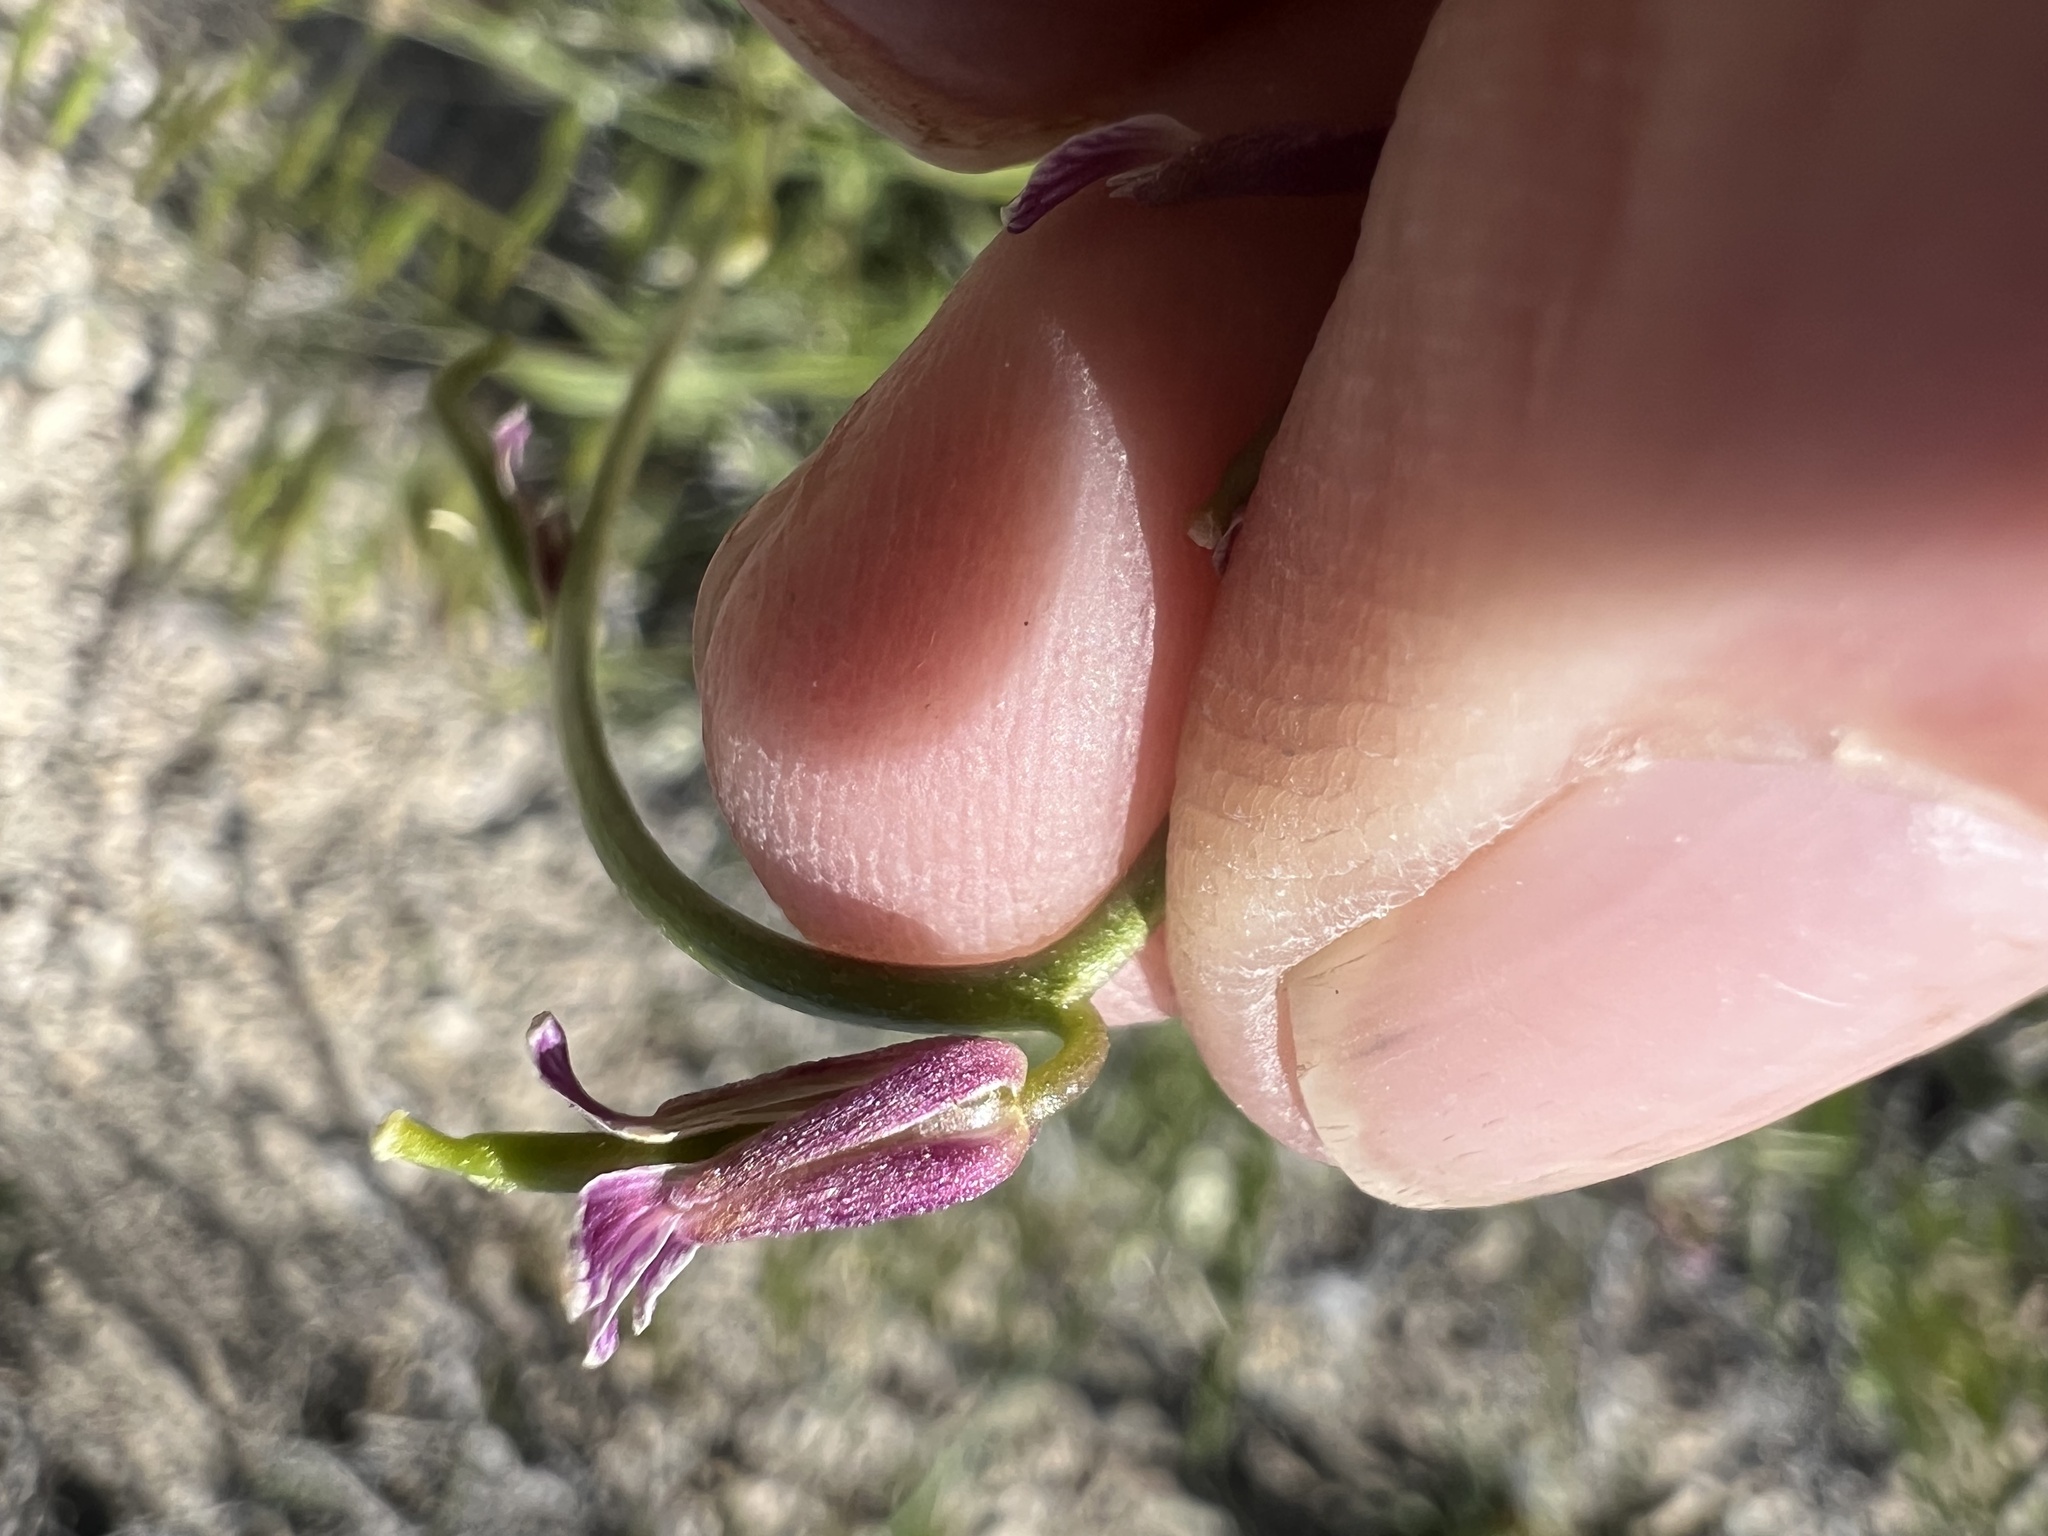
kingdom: Plantae
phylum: Tracheophyta
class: Magnoliopsida
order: Brassicales
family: Brassicaceae
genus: Streptanthus
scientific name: Streptanthus cooperi
